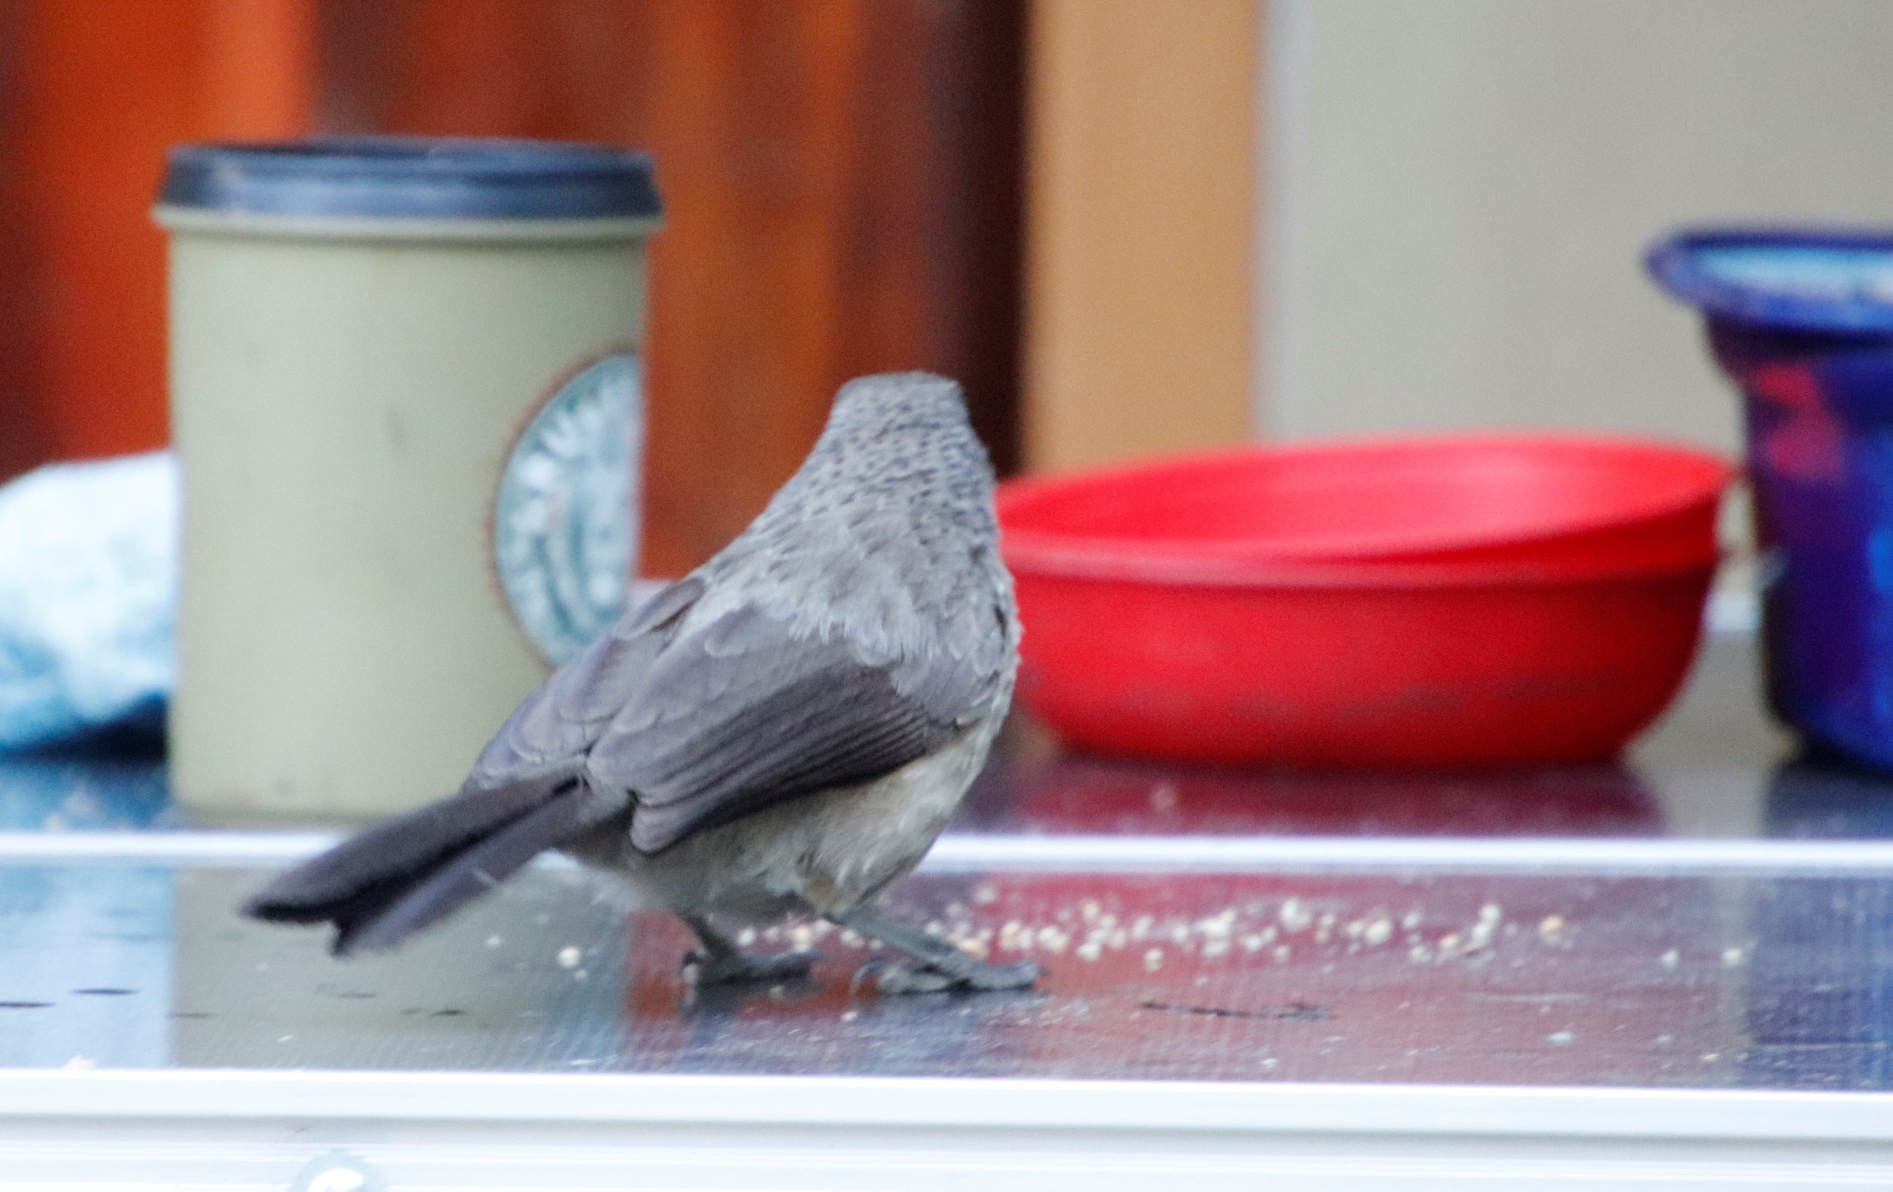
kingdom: Animalia
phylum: Chordata
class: Aves
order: Passeriformes
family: Leiothrichidae
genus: Turdoides
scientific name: Turdoides jardineii
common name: Arrow-marked babbler
